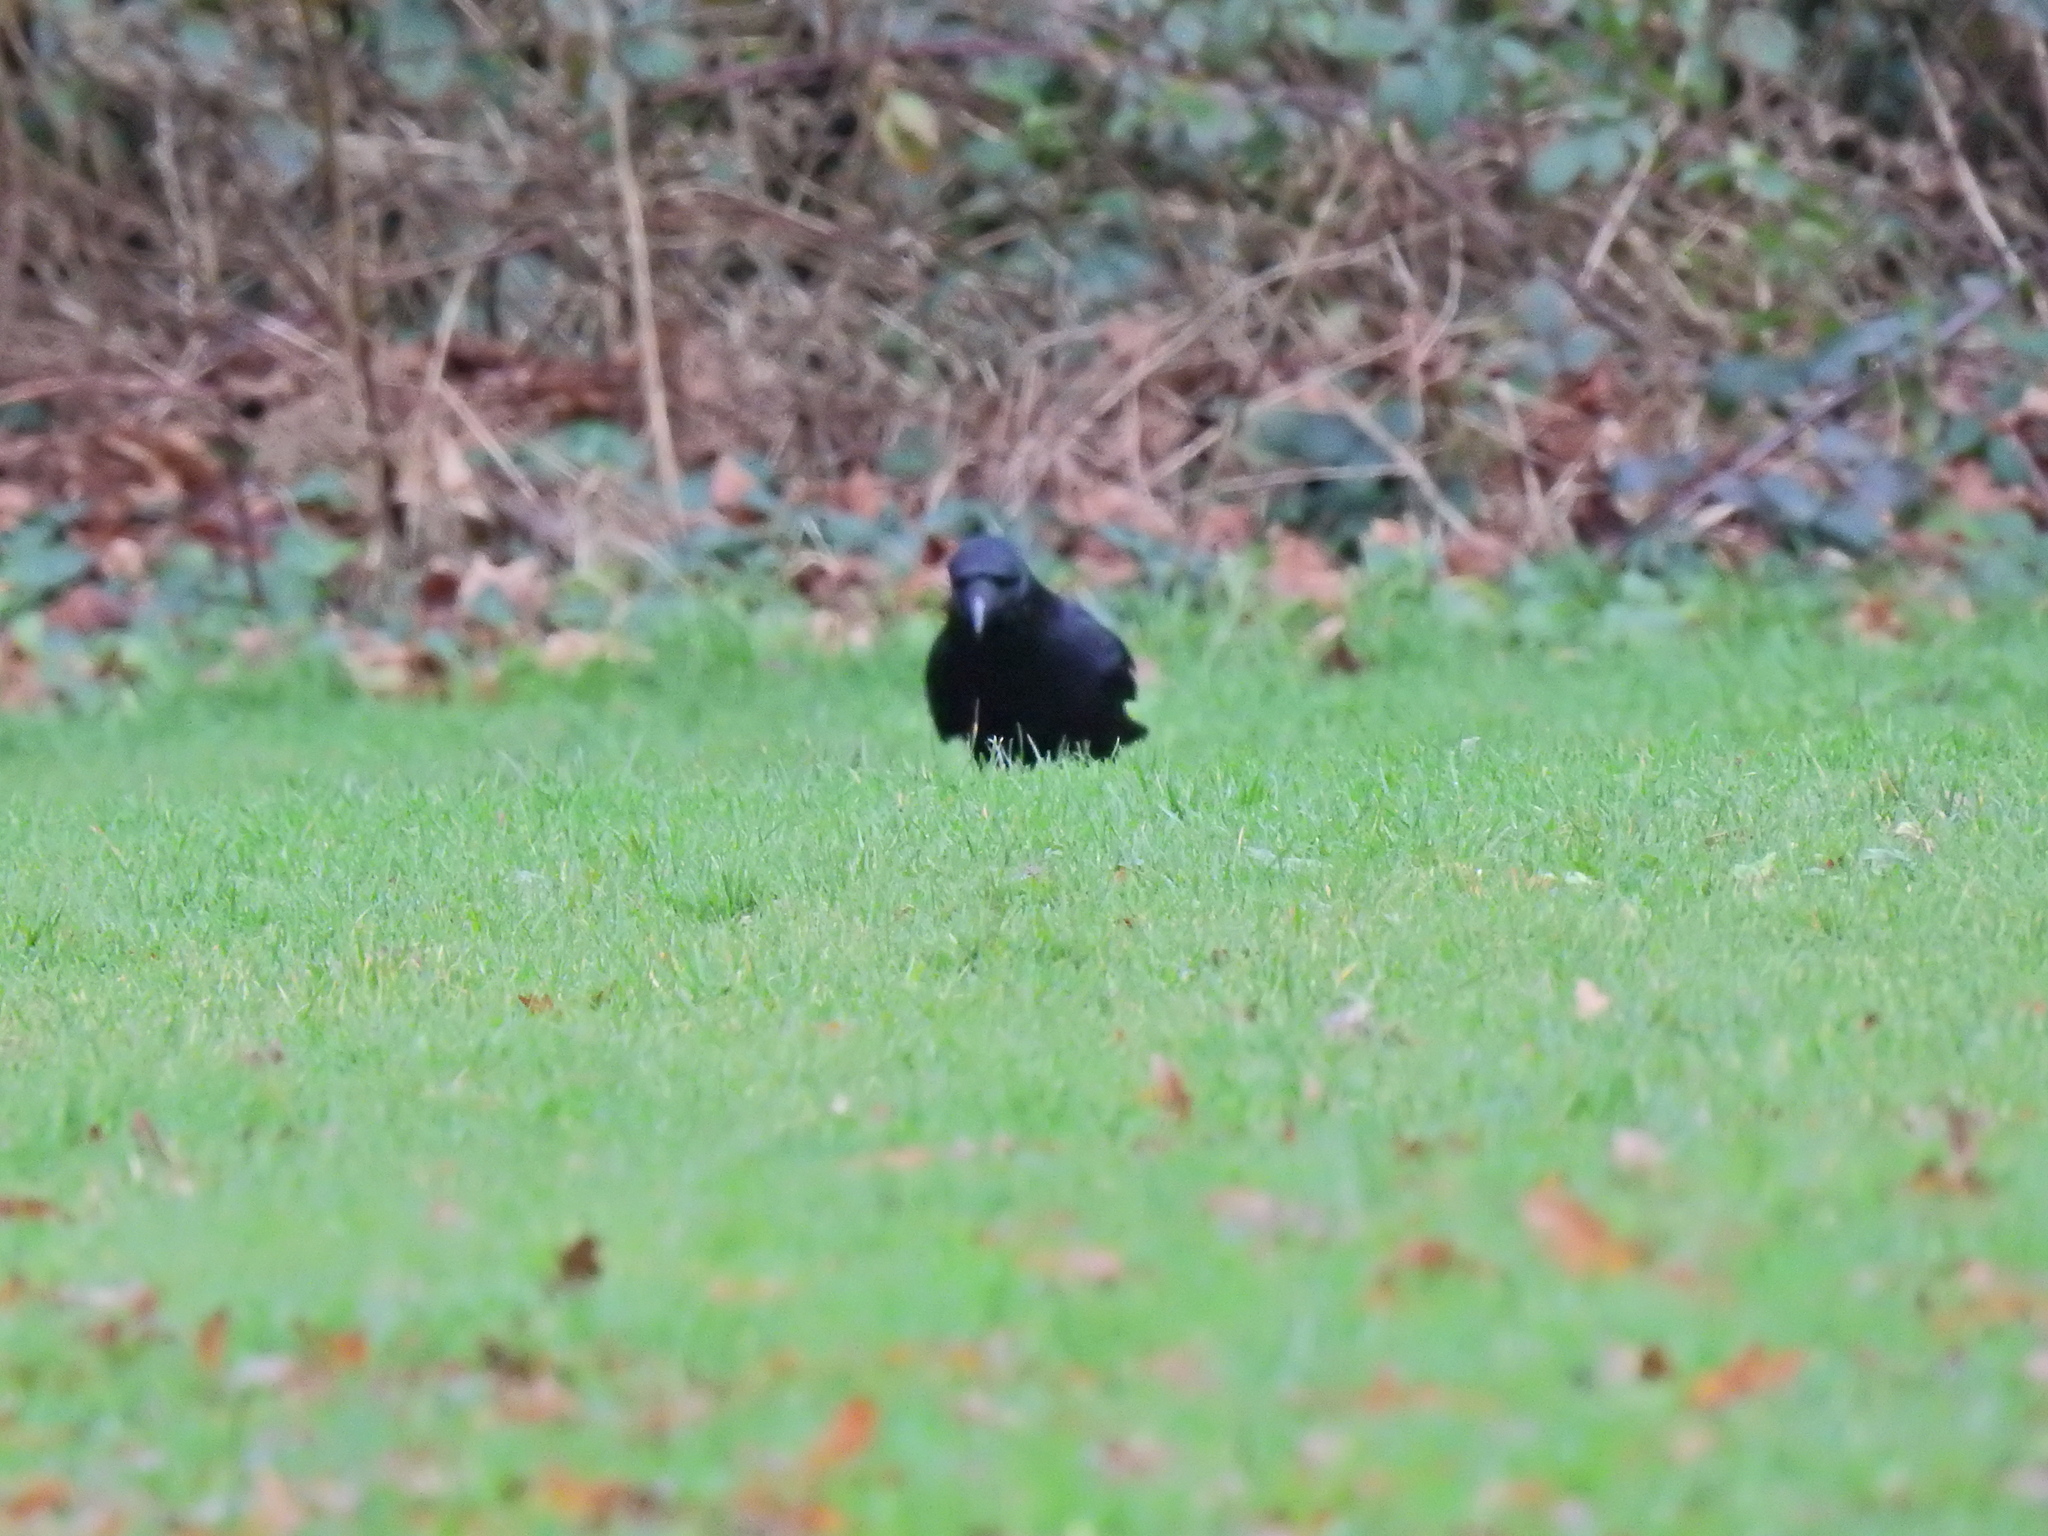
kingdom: Animalia
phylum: Chordata
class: Aves
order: Passeriformes
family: Corvidae
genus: Corvus
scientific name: Corvus corone
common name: Carrion crow
